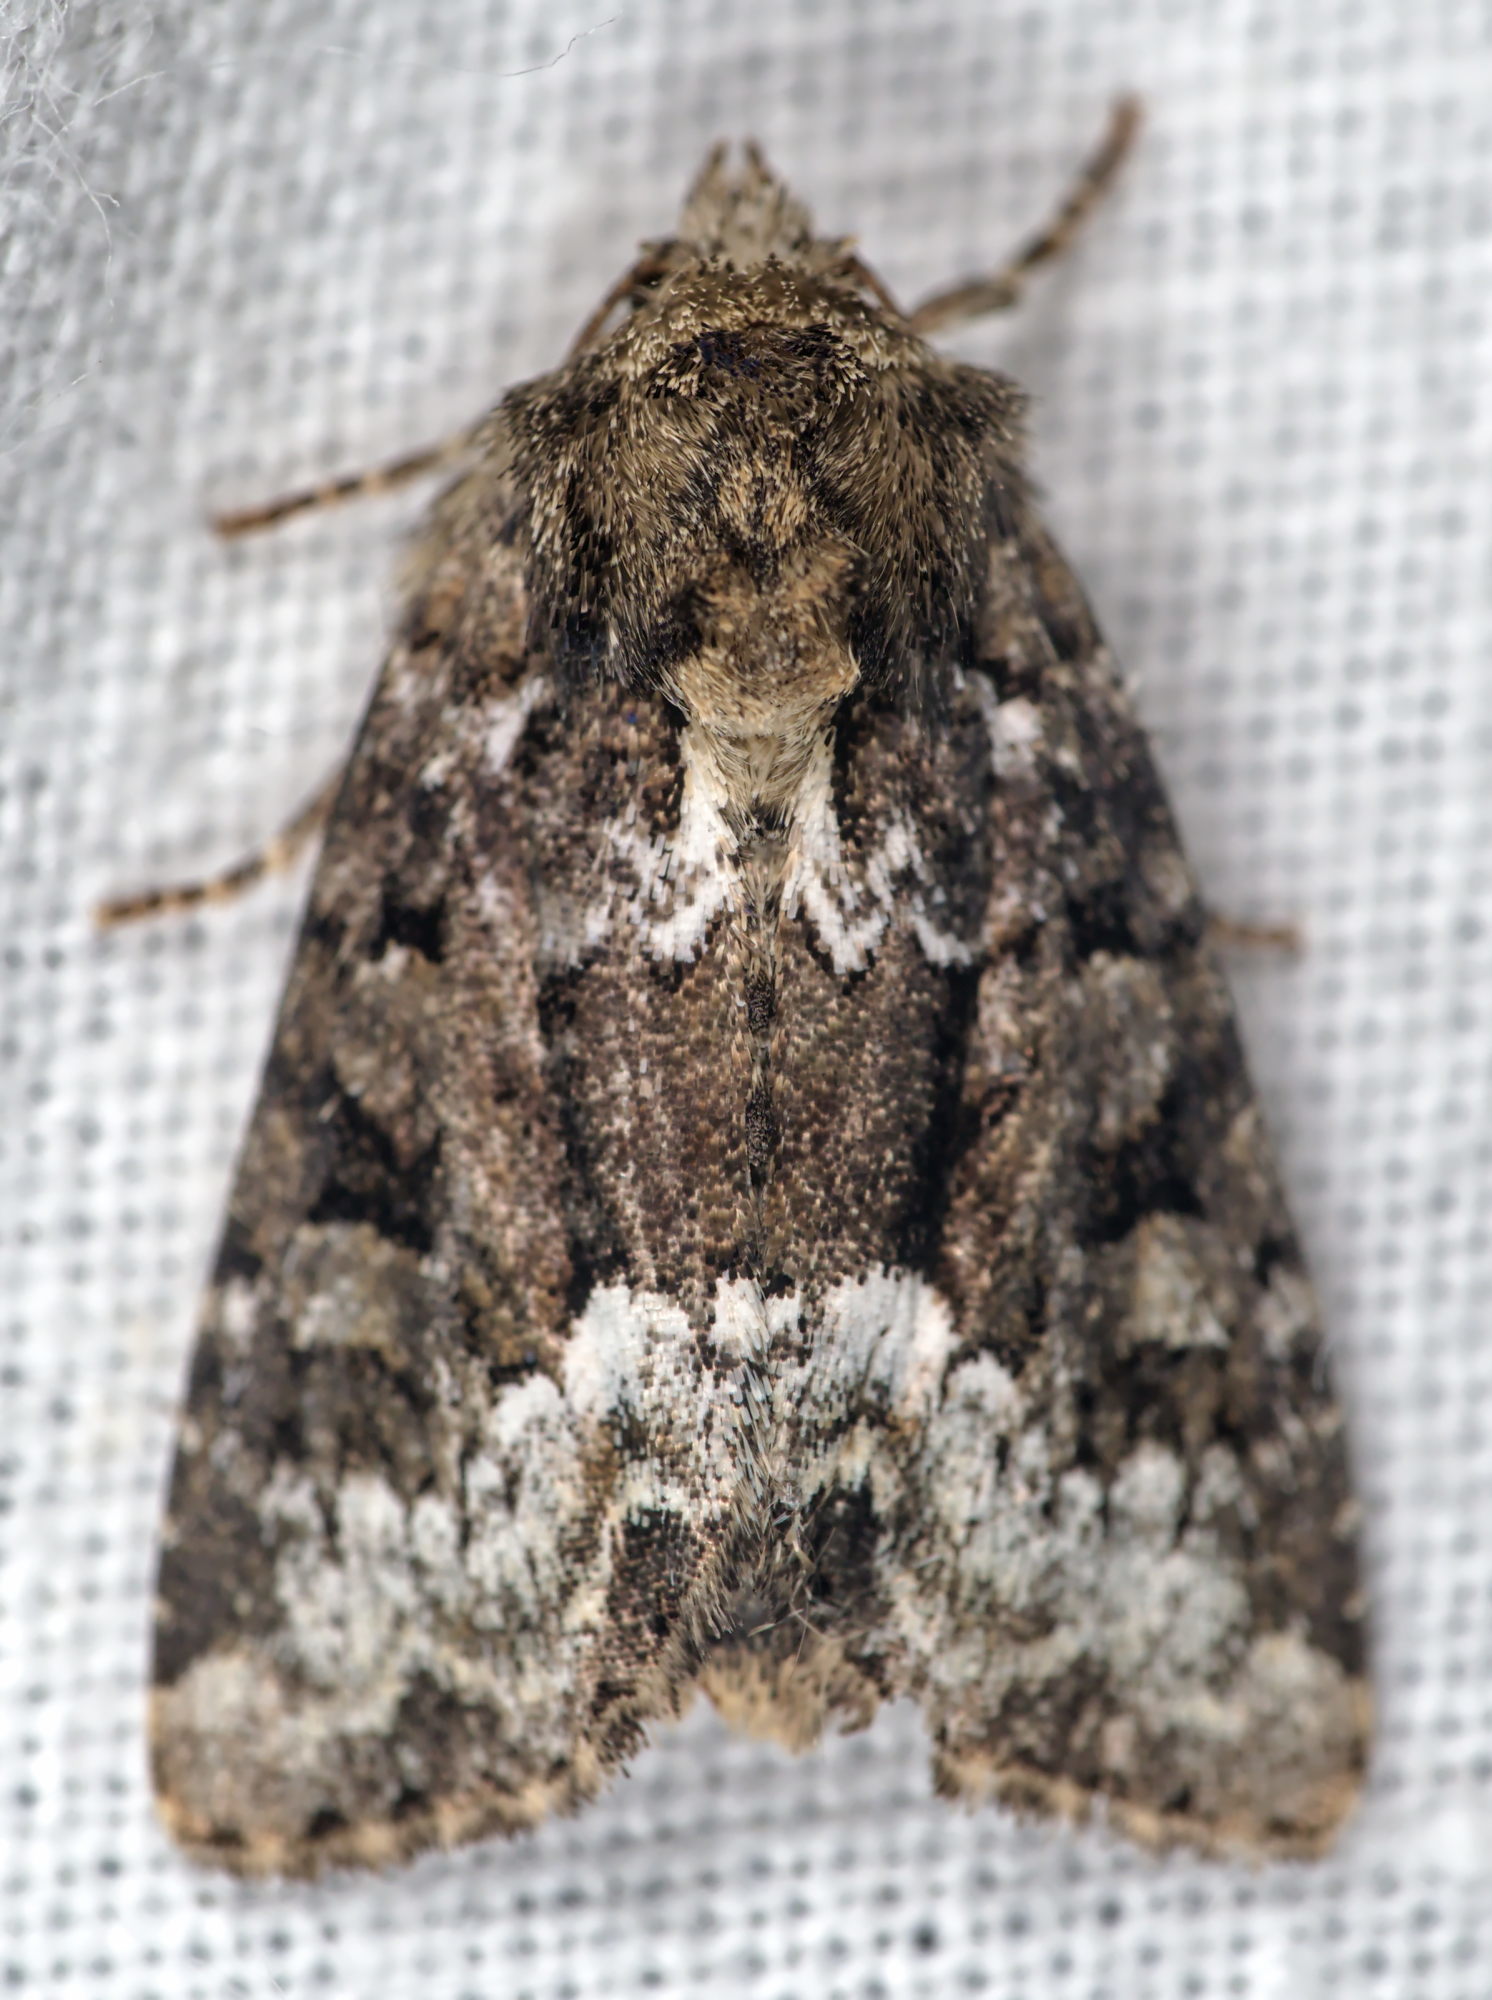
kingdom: Animalia
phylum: Arthropoda
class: Insecta
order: Lepidoptera
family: Noctuidae
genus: Oligia
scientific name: Oligia strigilis
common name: Marbled minor
